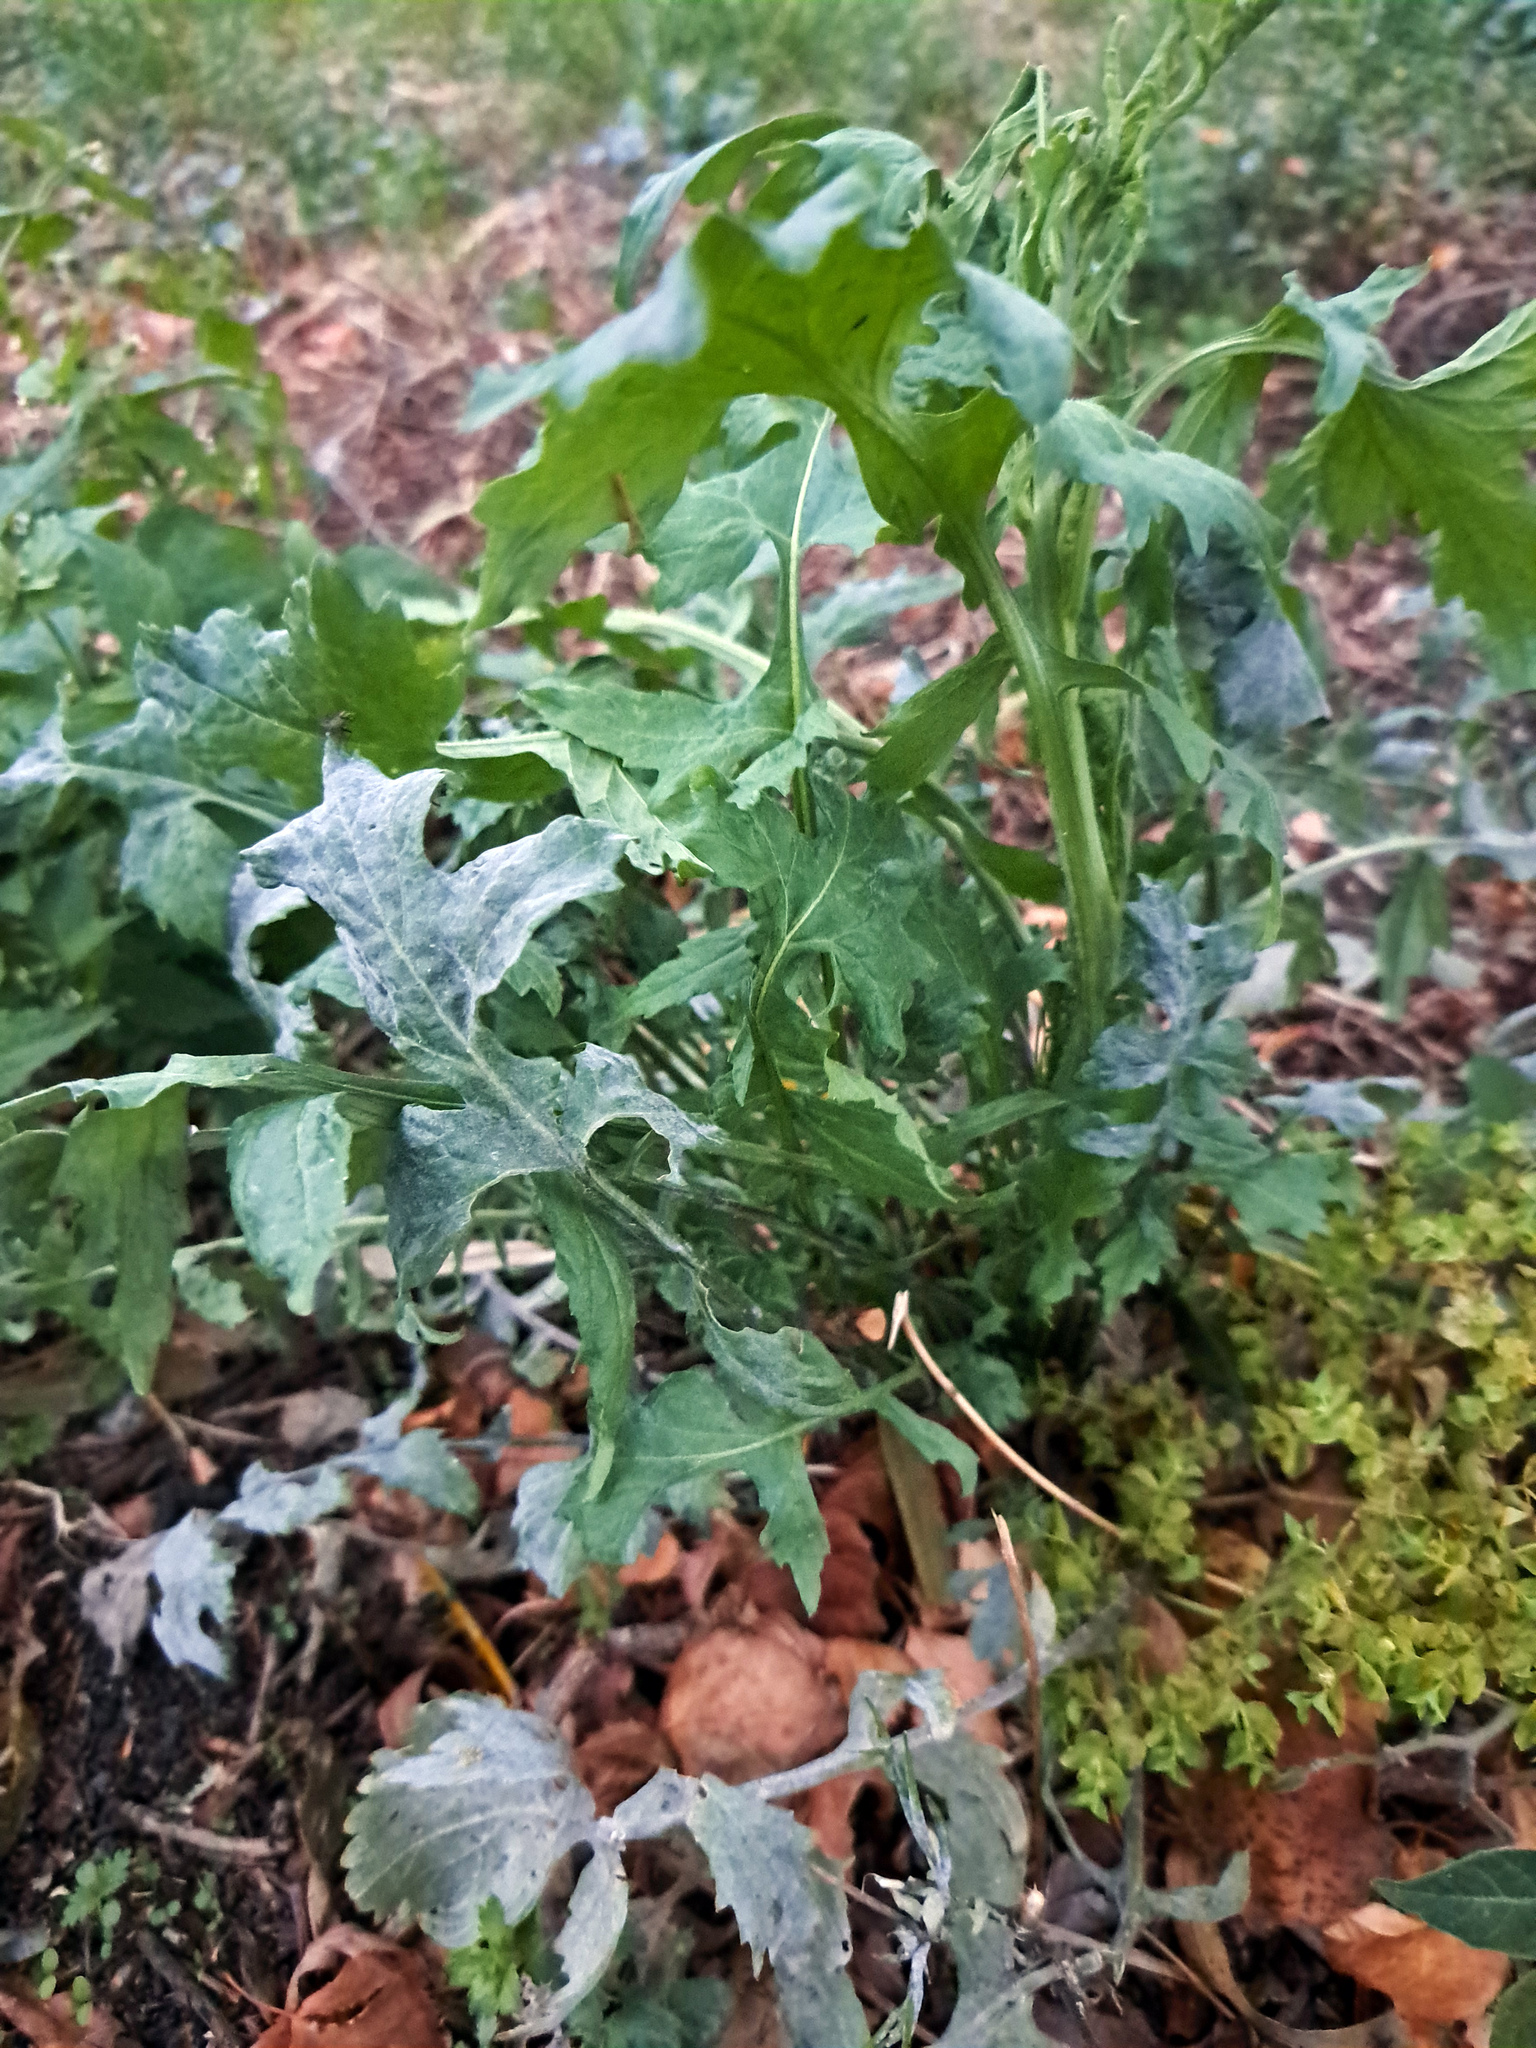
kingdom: Fungi
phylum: Ascomycota
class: Leotiomycetes
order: Helotiales
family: Erysiphaceae
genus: Erysiphe
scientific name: Erysiphe cruciferarum
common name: Brassica powdery mildew
